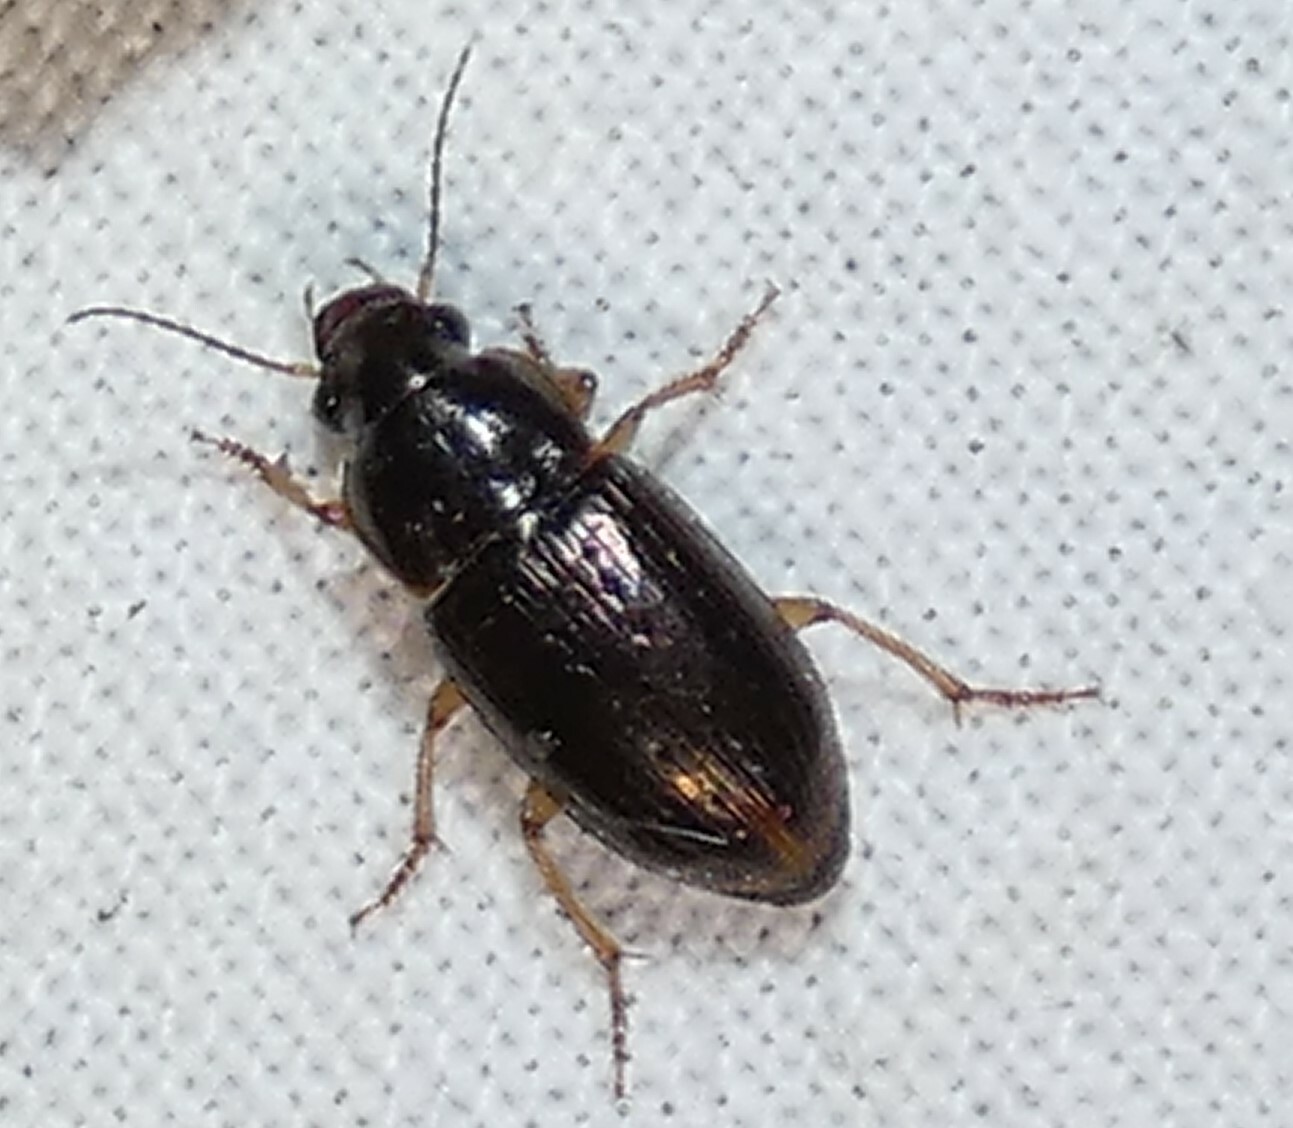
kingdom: Animalia
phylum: Arthropoda
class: Insecta
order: Coleoptera
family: Carabidae
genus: Selenophorus
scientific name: Selenophorus palliatus
